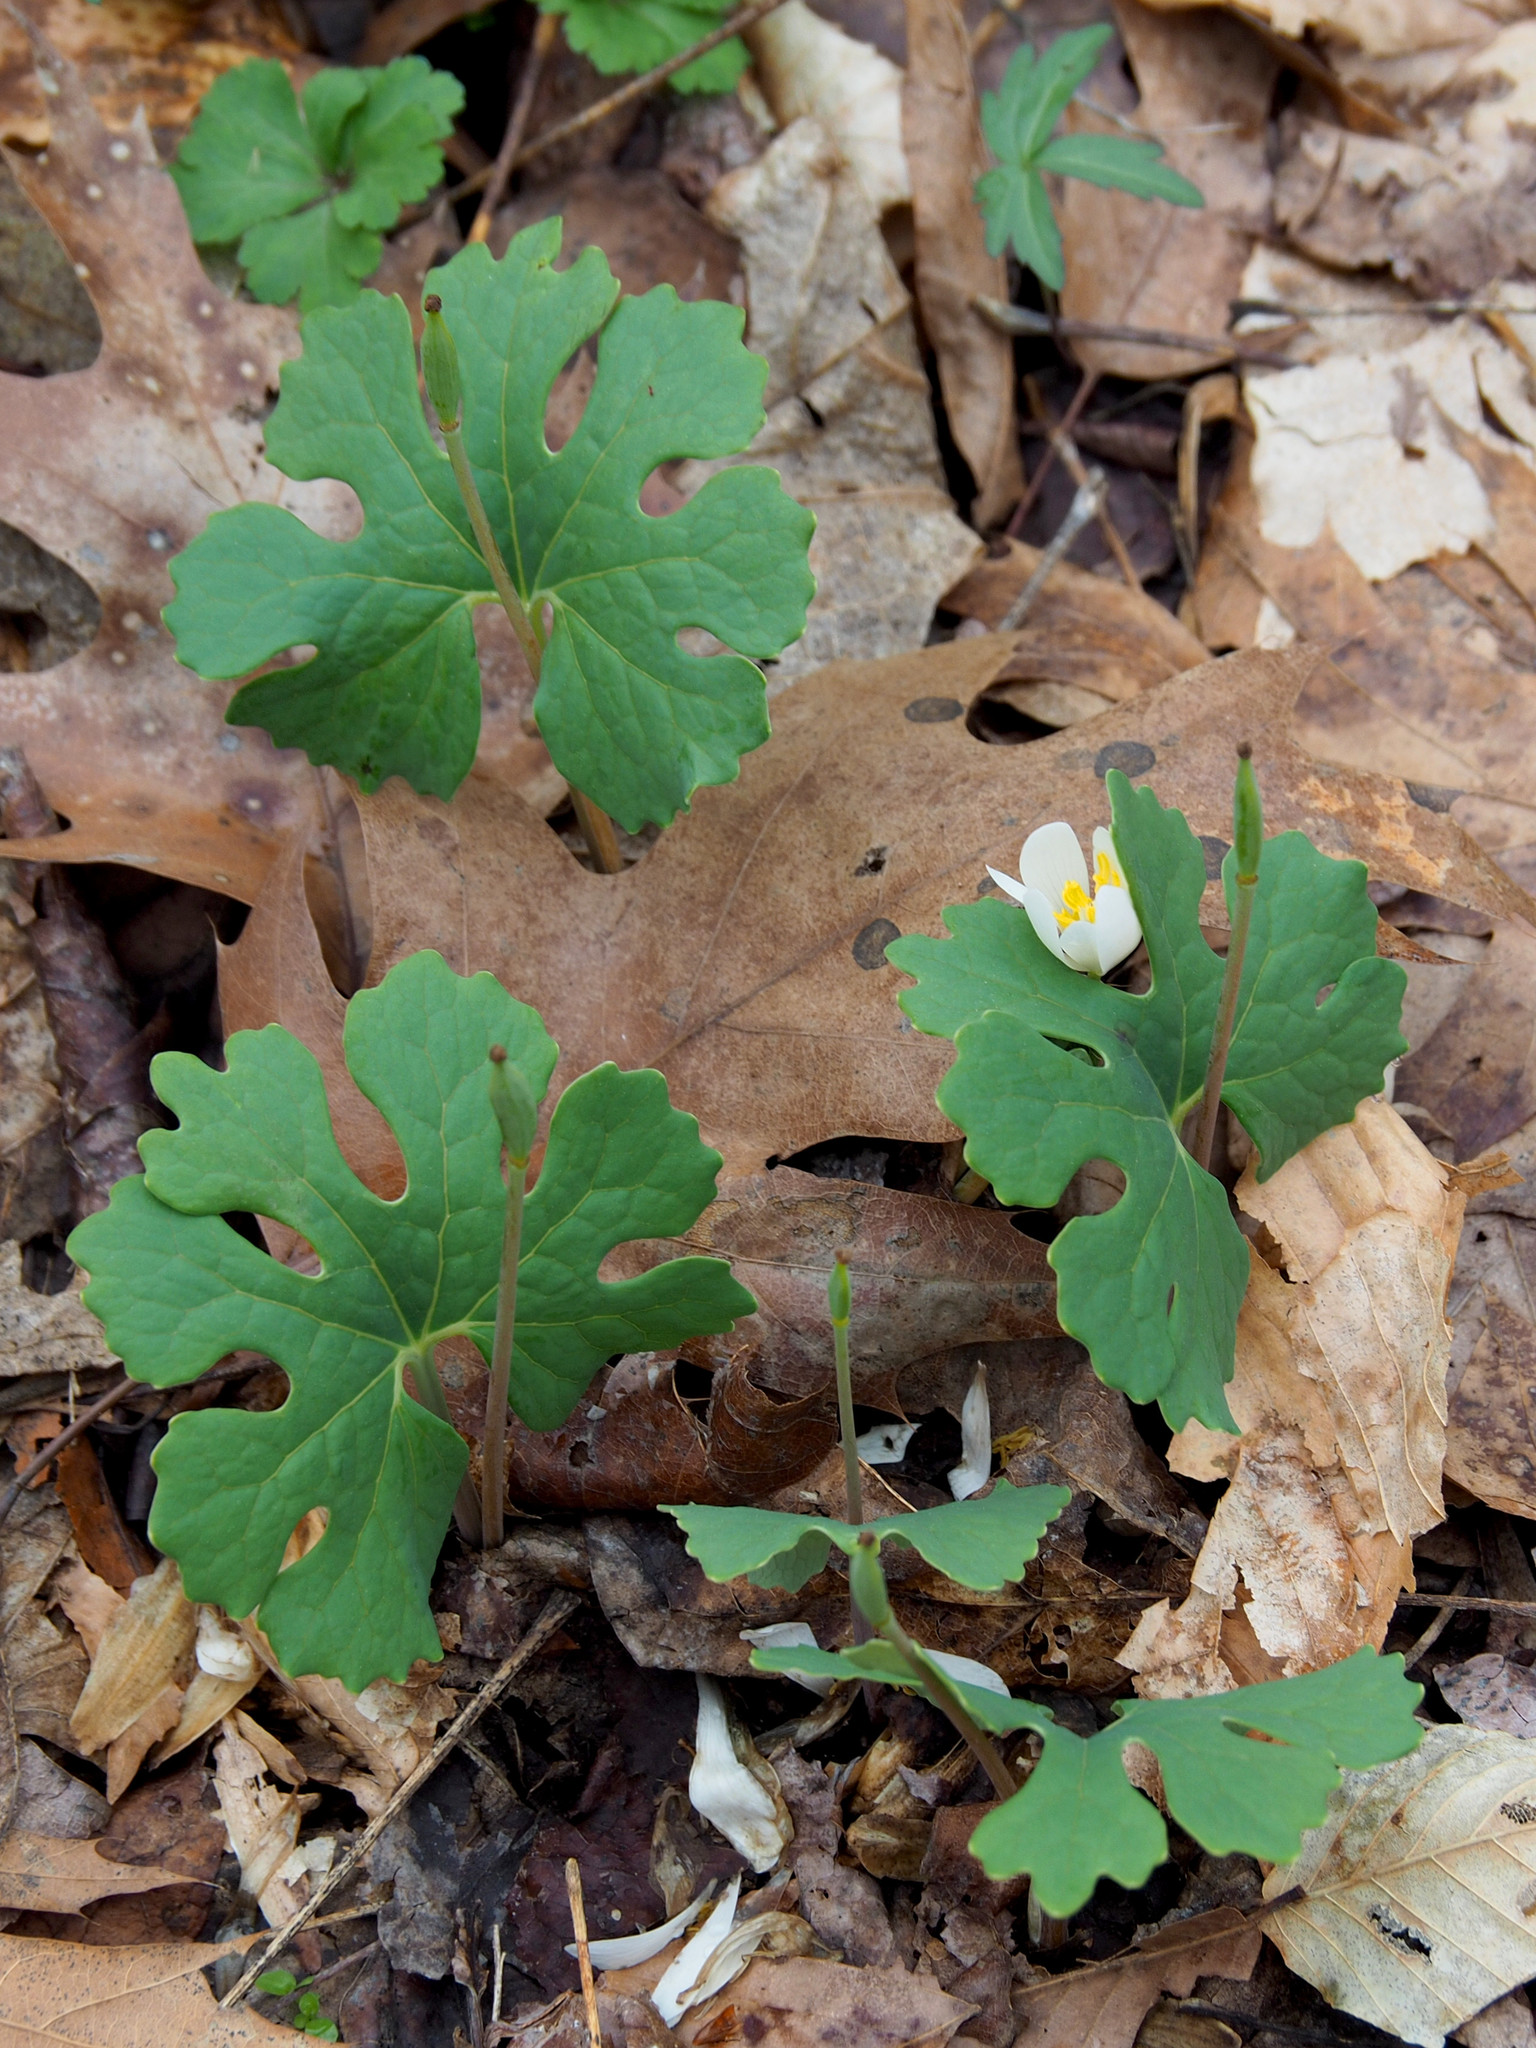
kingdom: Plantae
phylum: Tracheophyta
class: Magnoliopsida
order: Ranunculales
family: Papaveraceae
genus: Sanguinaria
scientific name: Sanguinaria canadensis
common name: Bloodroot
